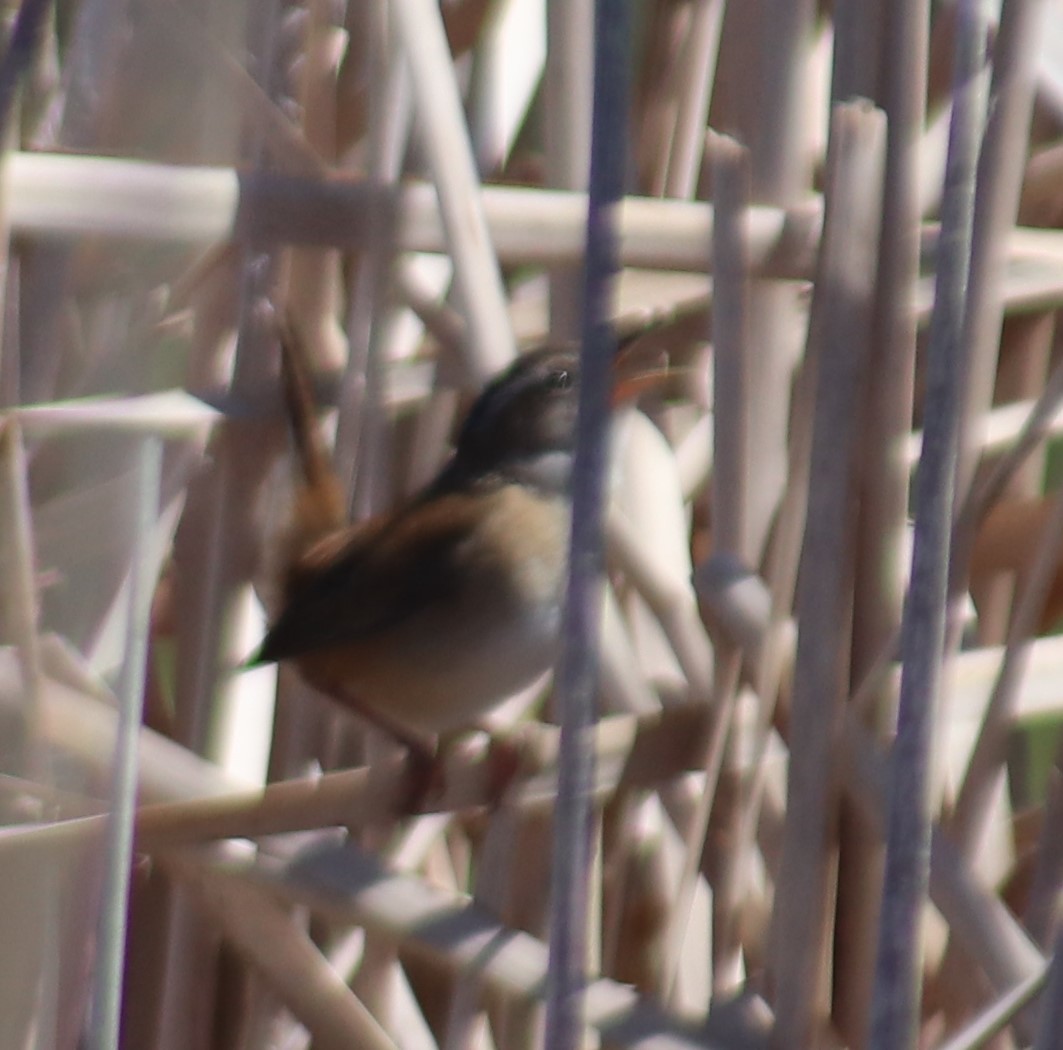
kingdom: Animalia
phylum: Chordata
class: Aves
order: Passeriformes
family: Troglodytidae
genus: Cistothorus
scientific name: Cistothorus palustris
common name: Marsh wren
